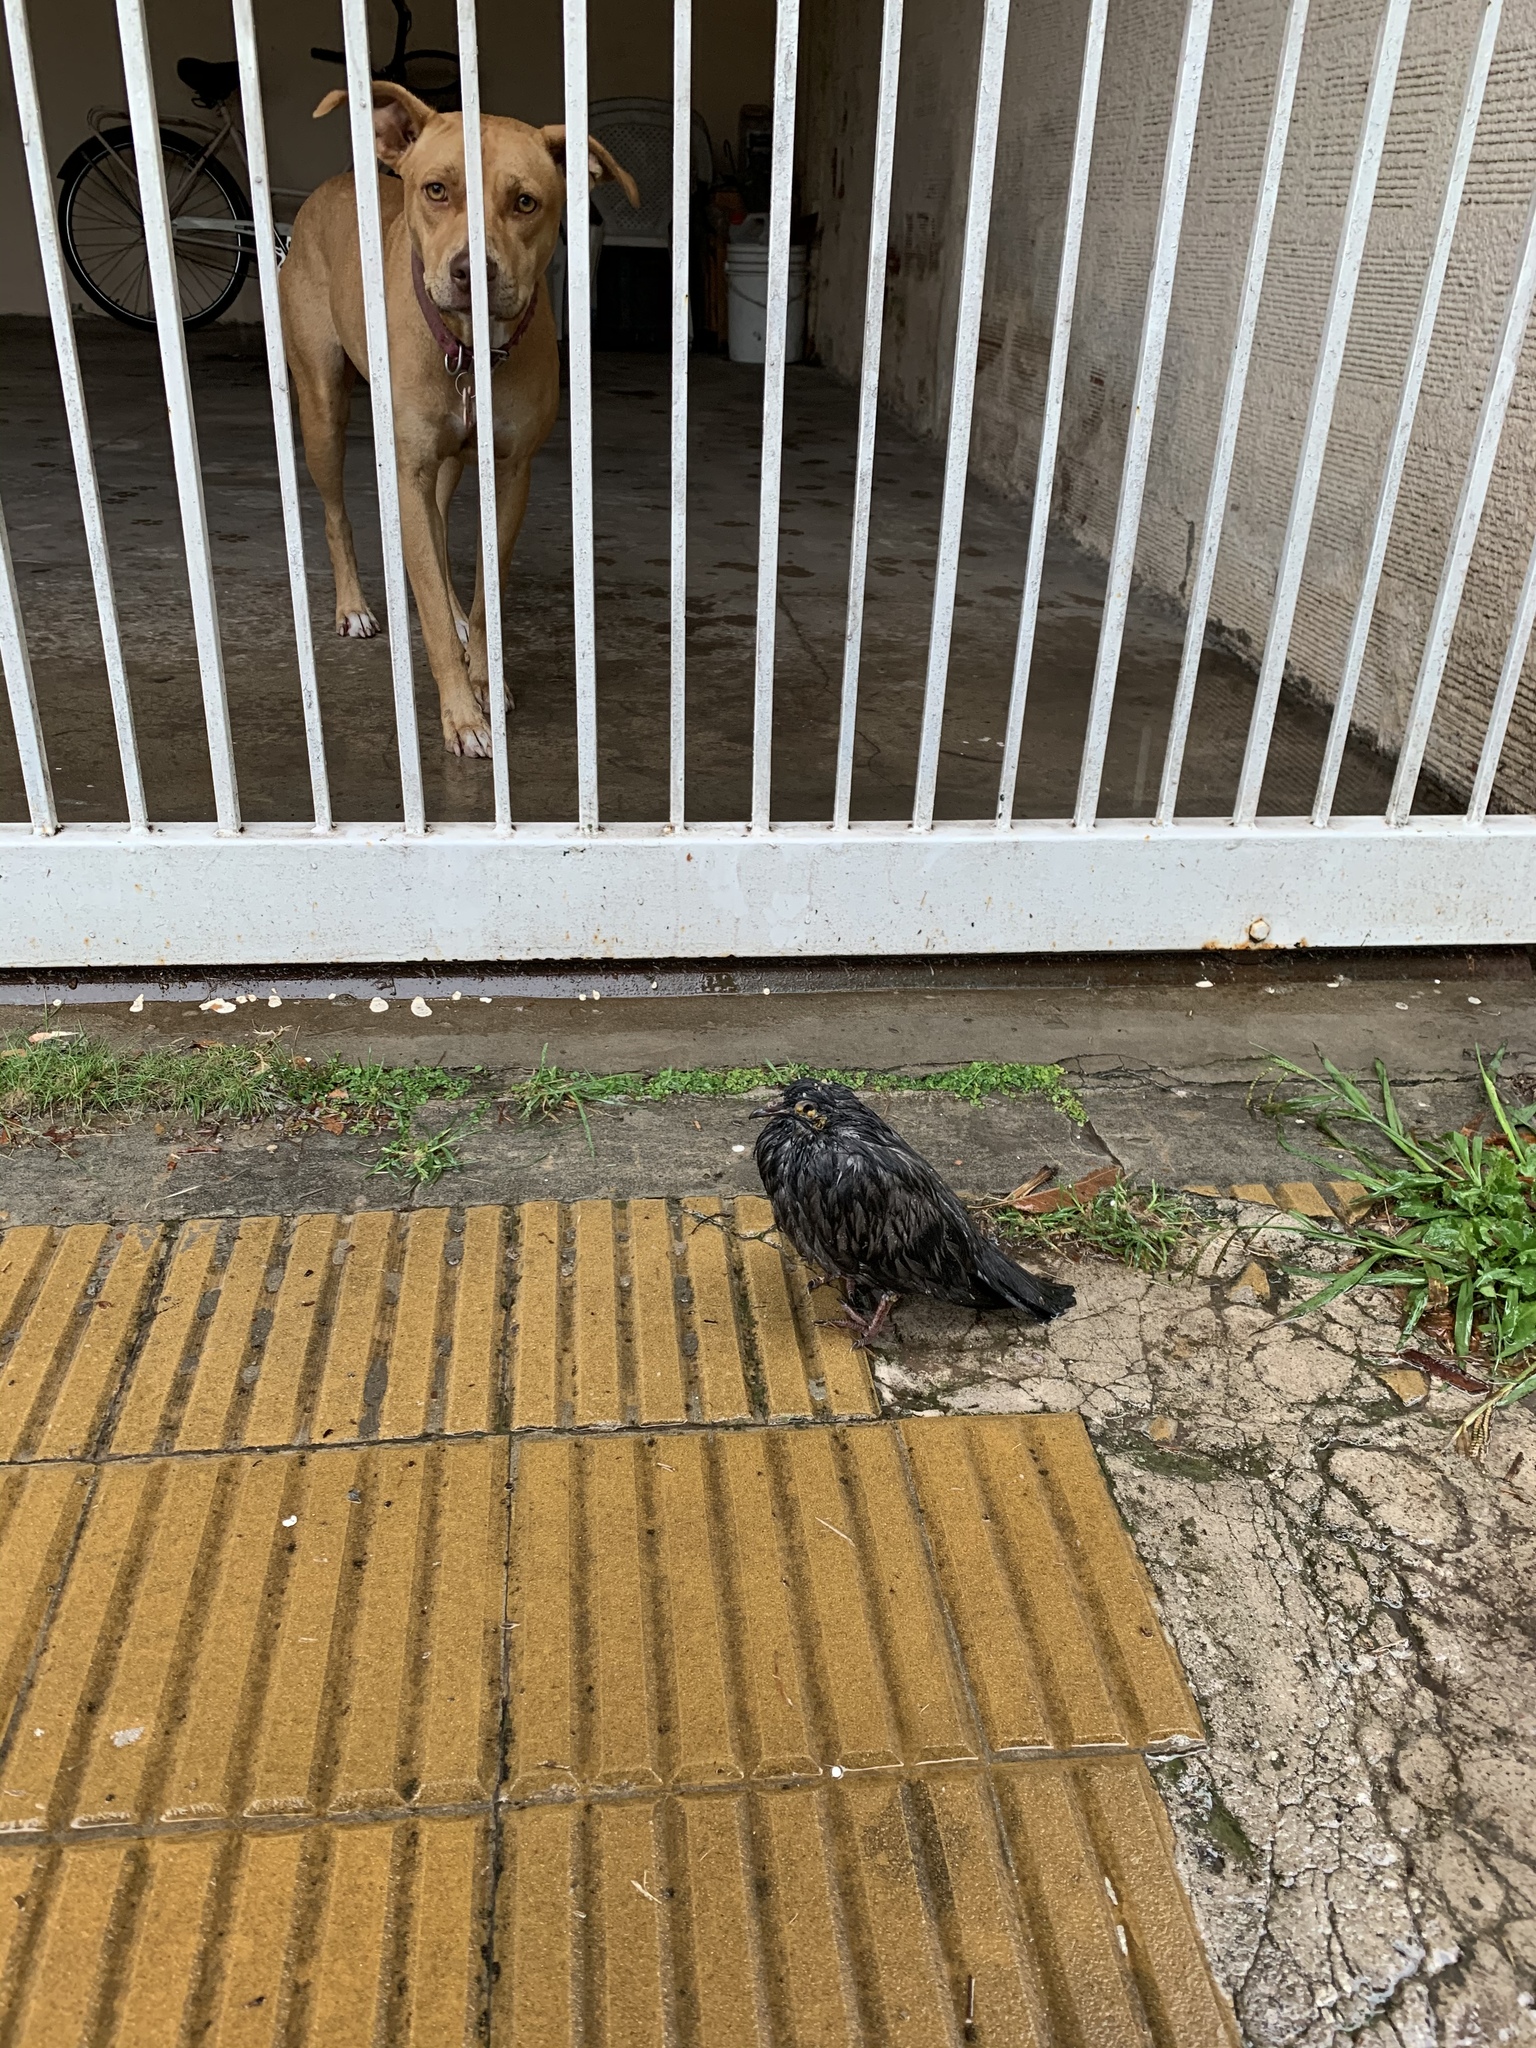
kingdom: Animalia
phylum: Chordata
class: Aves
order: Columbiformes
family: Columbidae
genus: Columba
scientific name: Columba livia
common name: Rock pigeon
